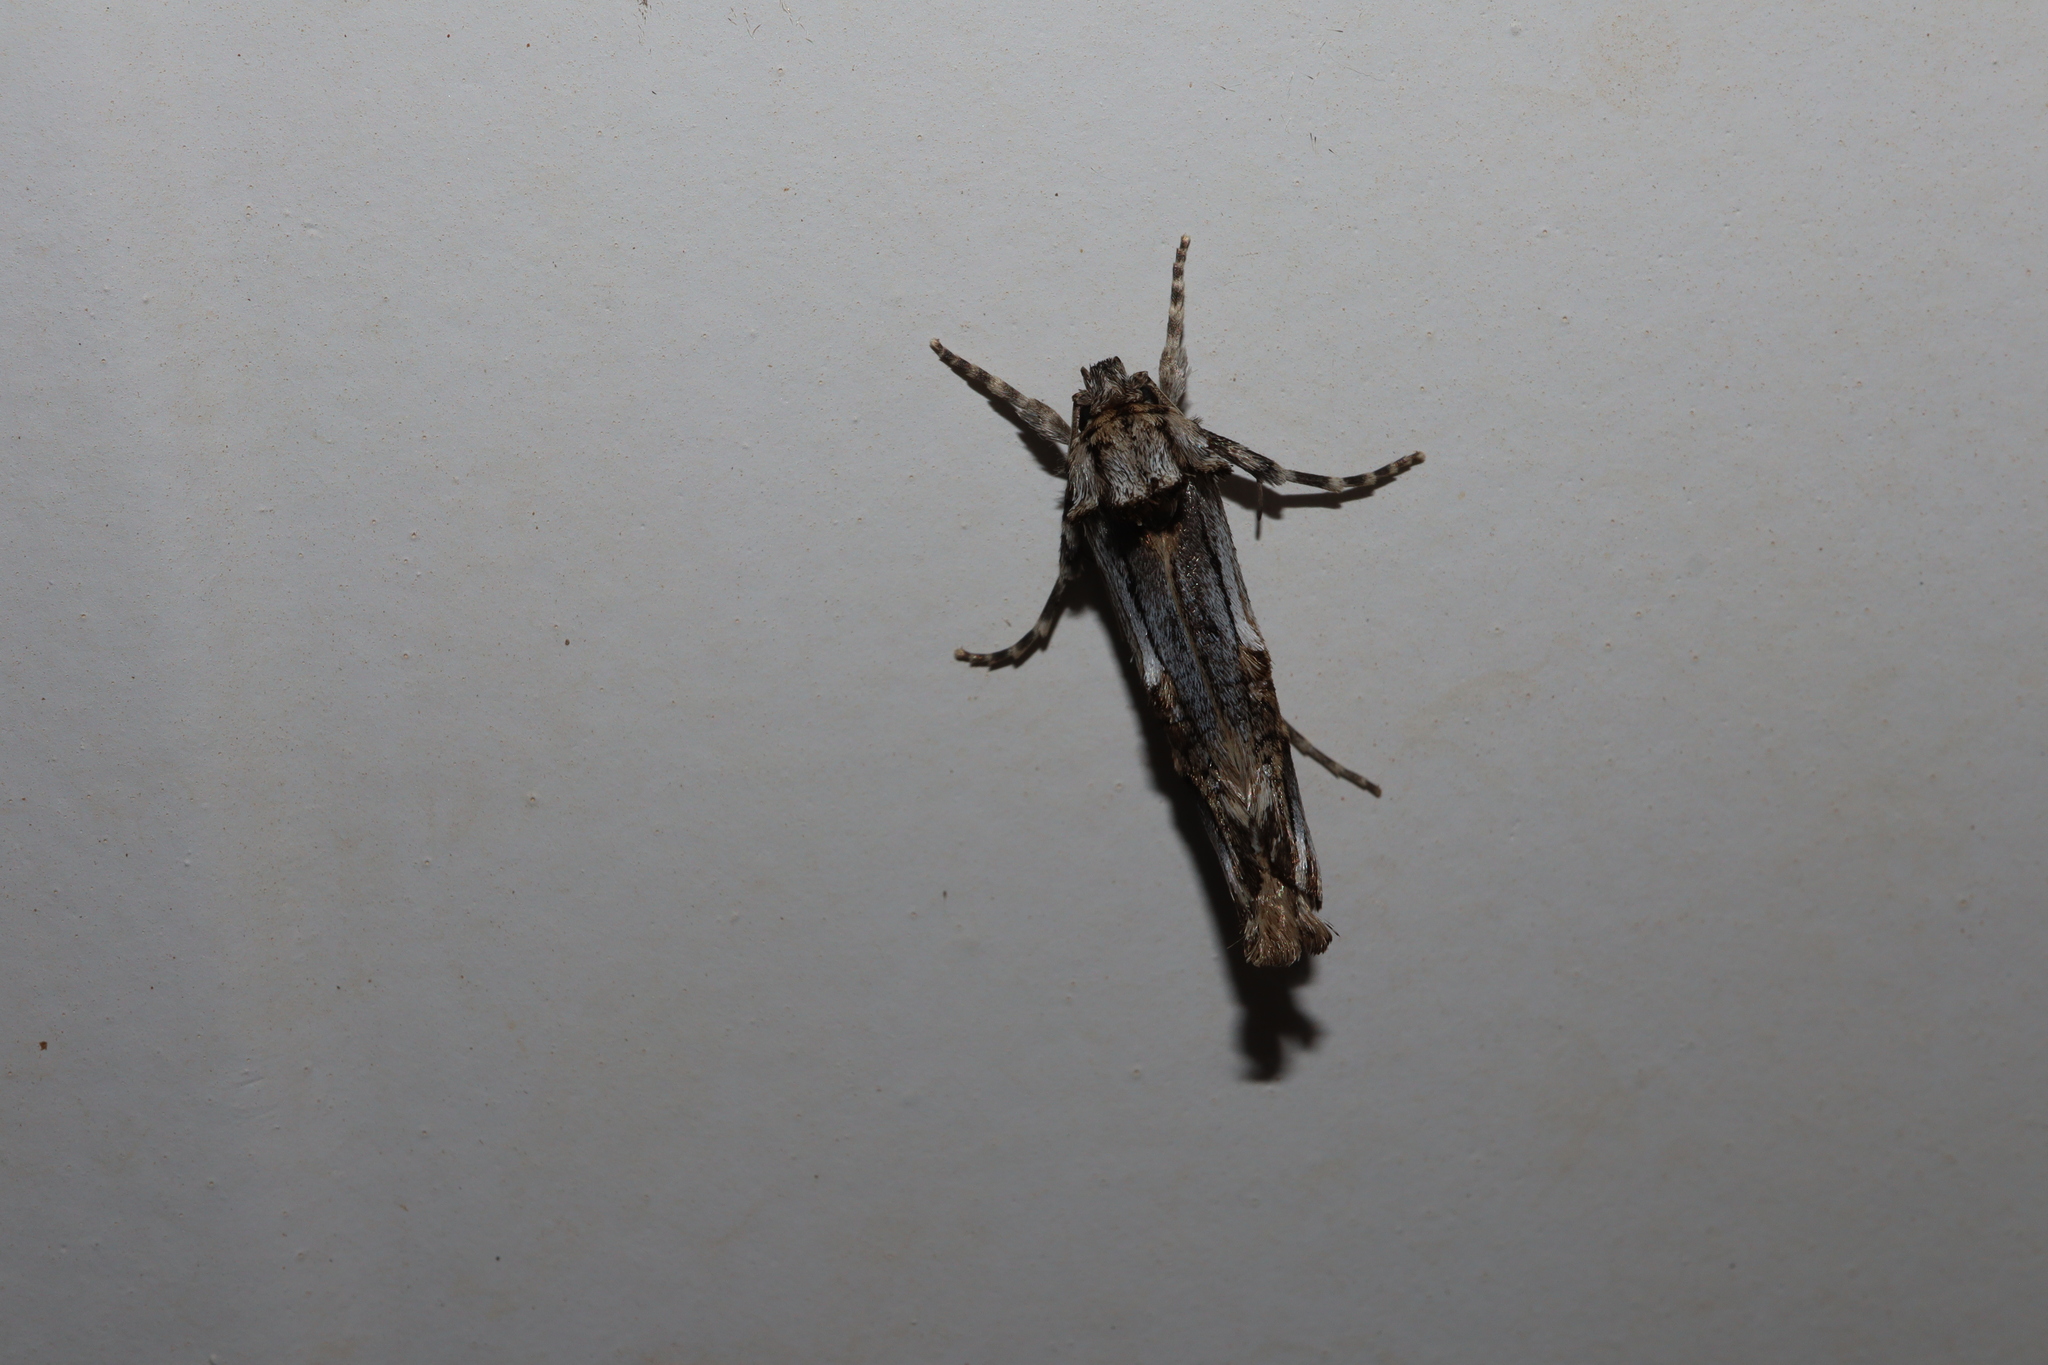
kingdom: Animalia
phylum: Arthropoda
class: Insecta
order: Lepidoptera
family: Cossidae
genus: Archaeoses
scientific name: Archaeoses pentasema
